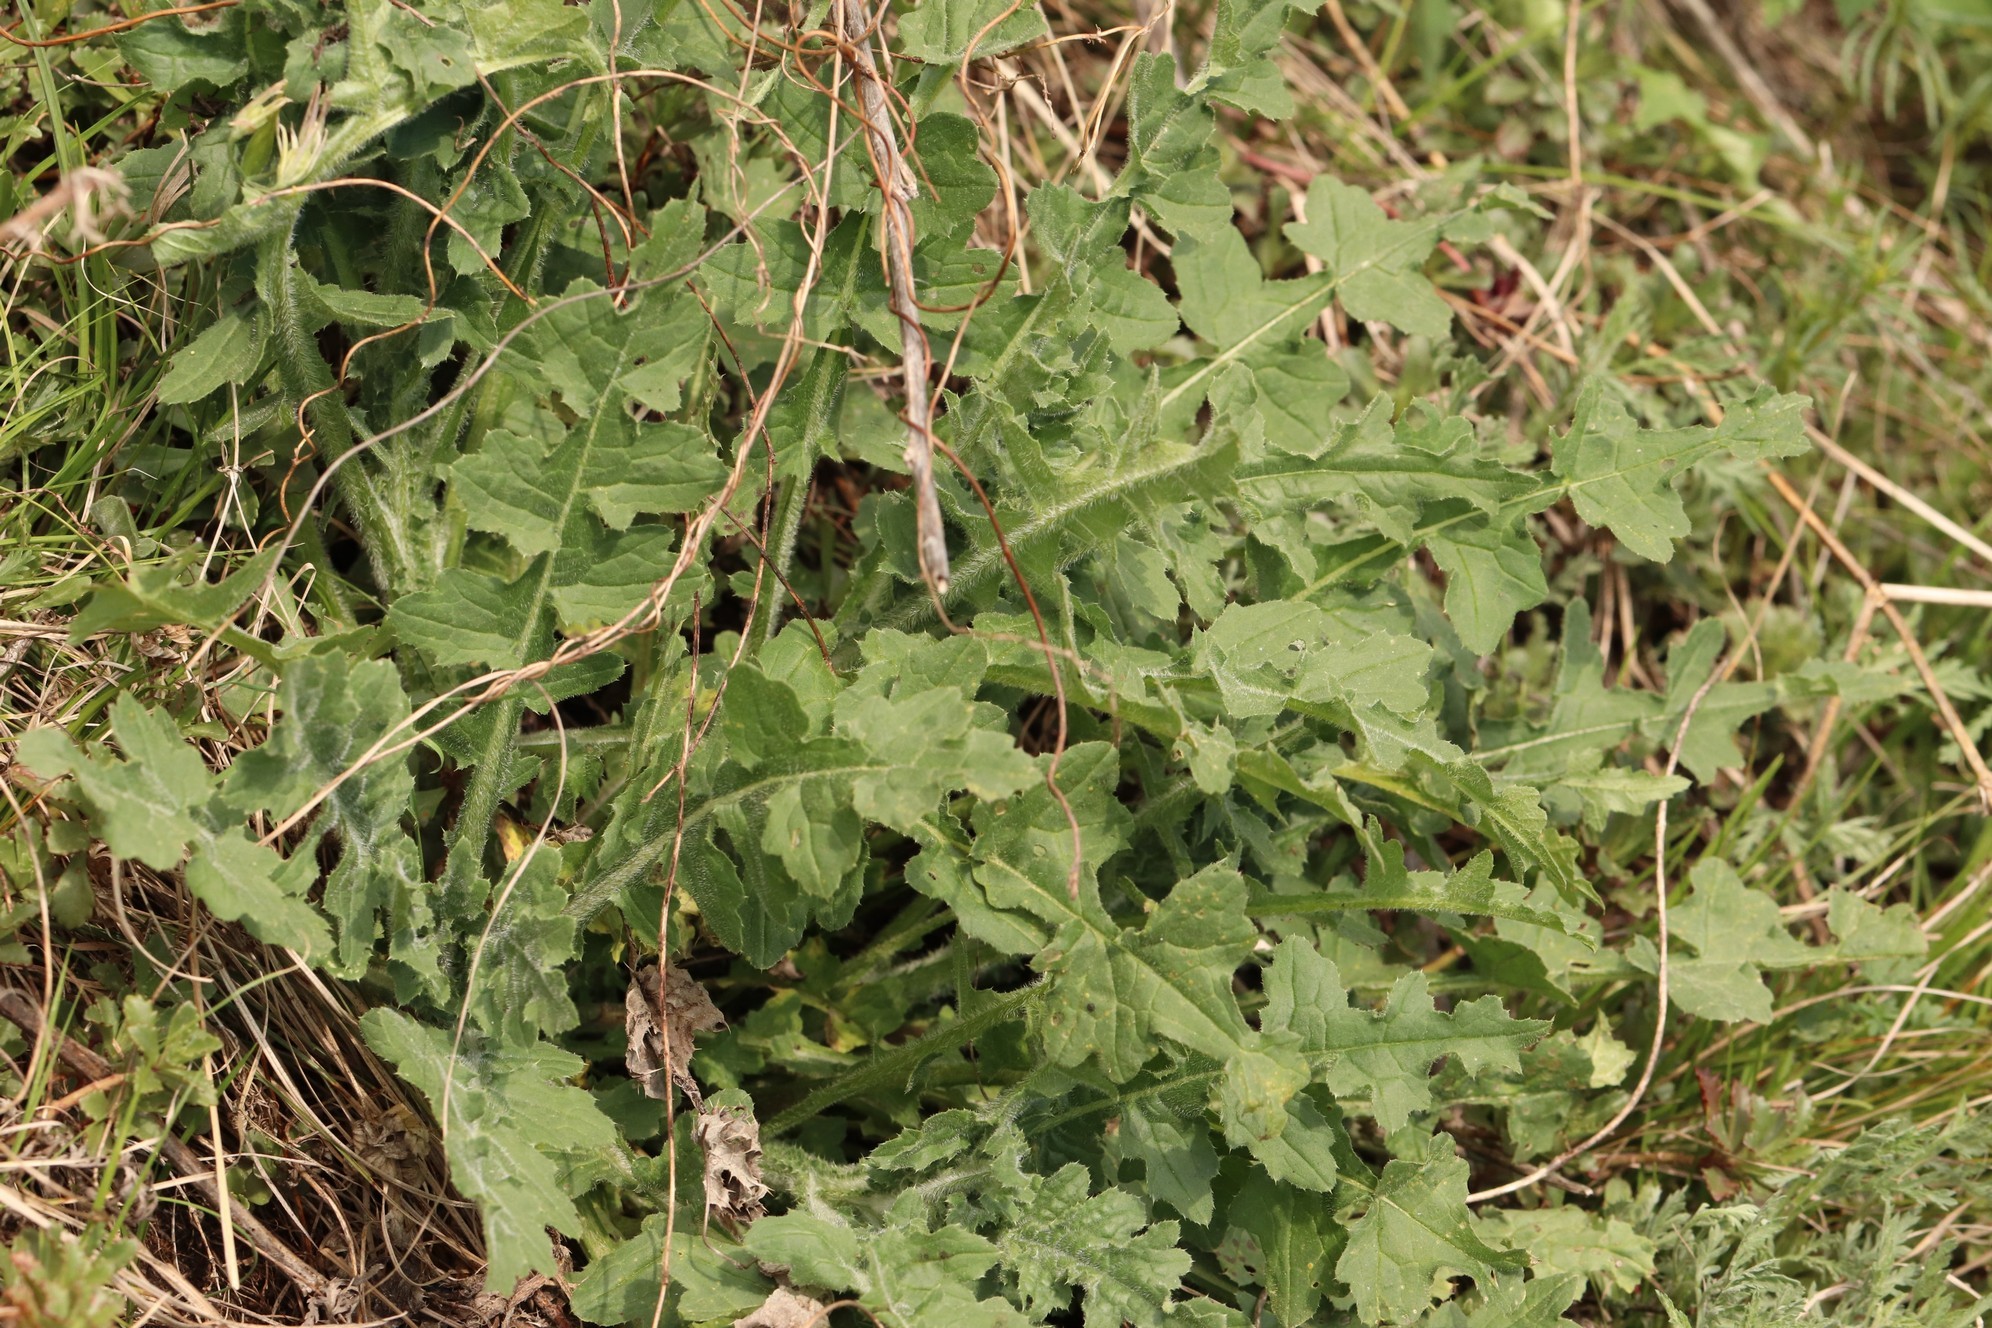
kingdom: Plantae
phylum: Tracheophyta
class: Magnoliopsida
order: Asterales
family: Asteraceae
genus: Carduus
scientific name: Carduus crispus
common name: Welted thistle
